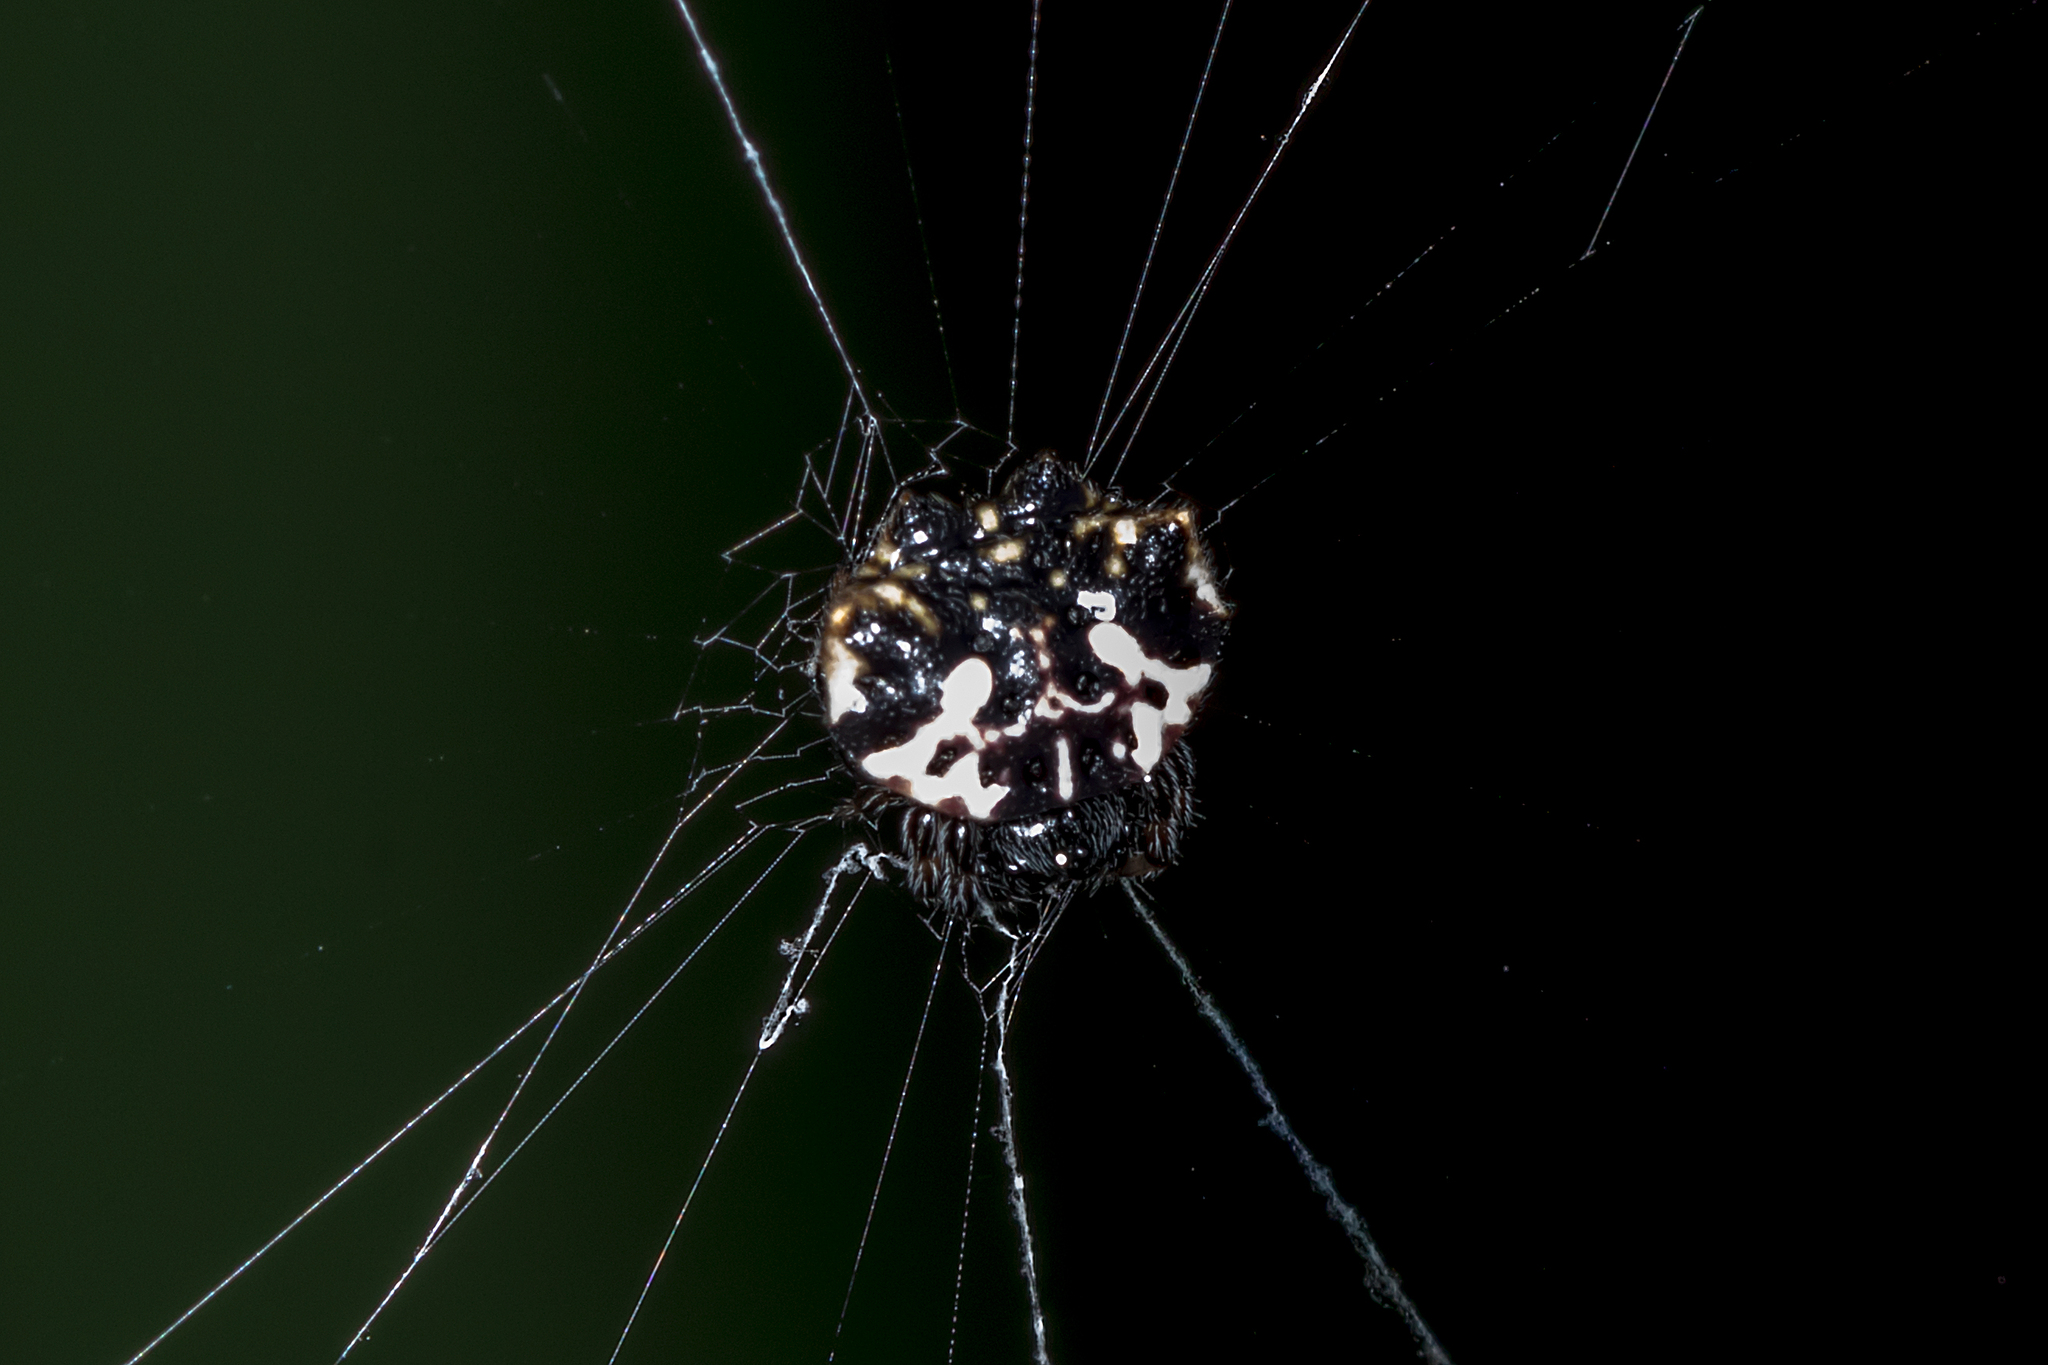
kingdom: Animalia
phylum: Arthropoda
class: Arachnida
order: Araneae
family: Araneidae
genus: Gasteracantha
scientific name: Gasteracantha sacerdotalis
